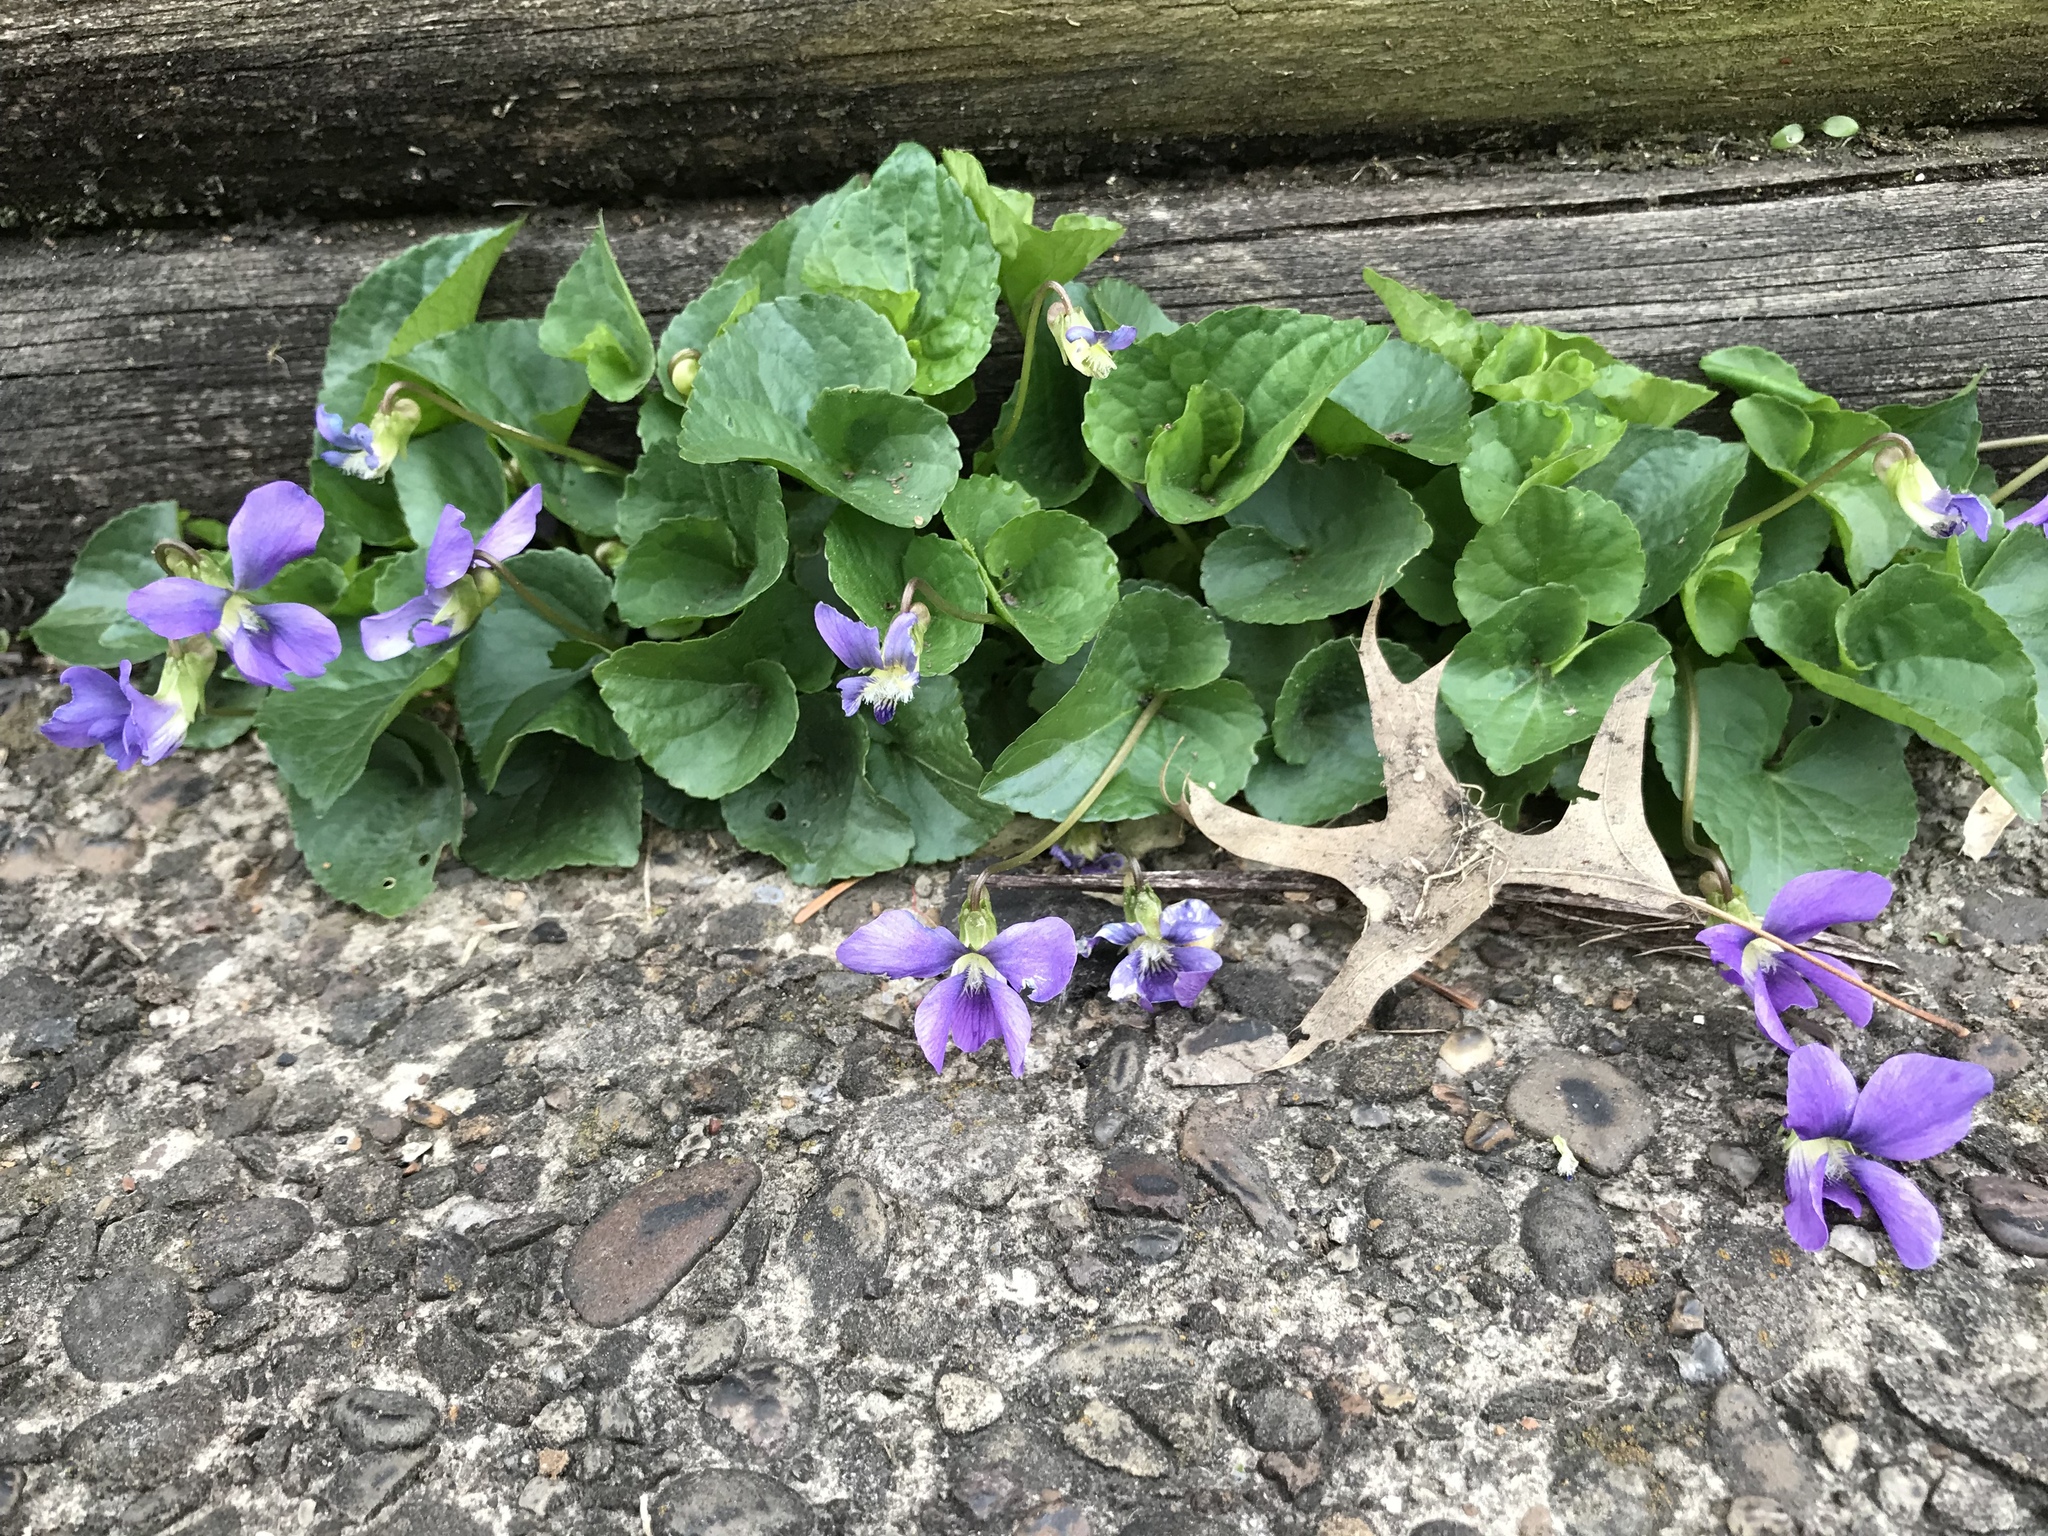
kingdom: Plantae
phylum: Tracheophyta
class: Magnoliopsida
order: Malpighiales
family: Violaceae
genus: Viola
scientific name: Viola sororia
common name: Dooryard violet
